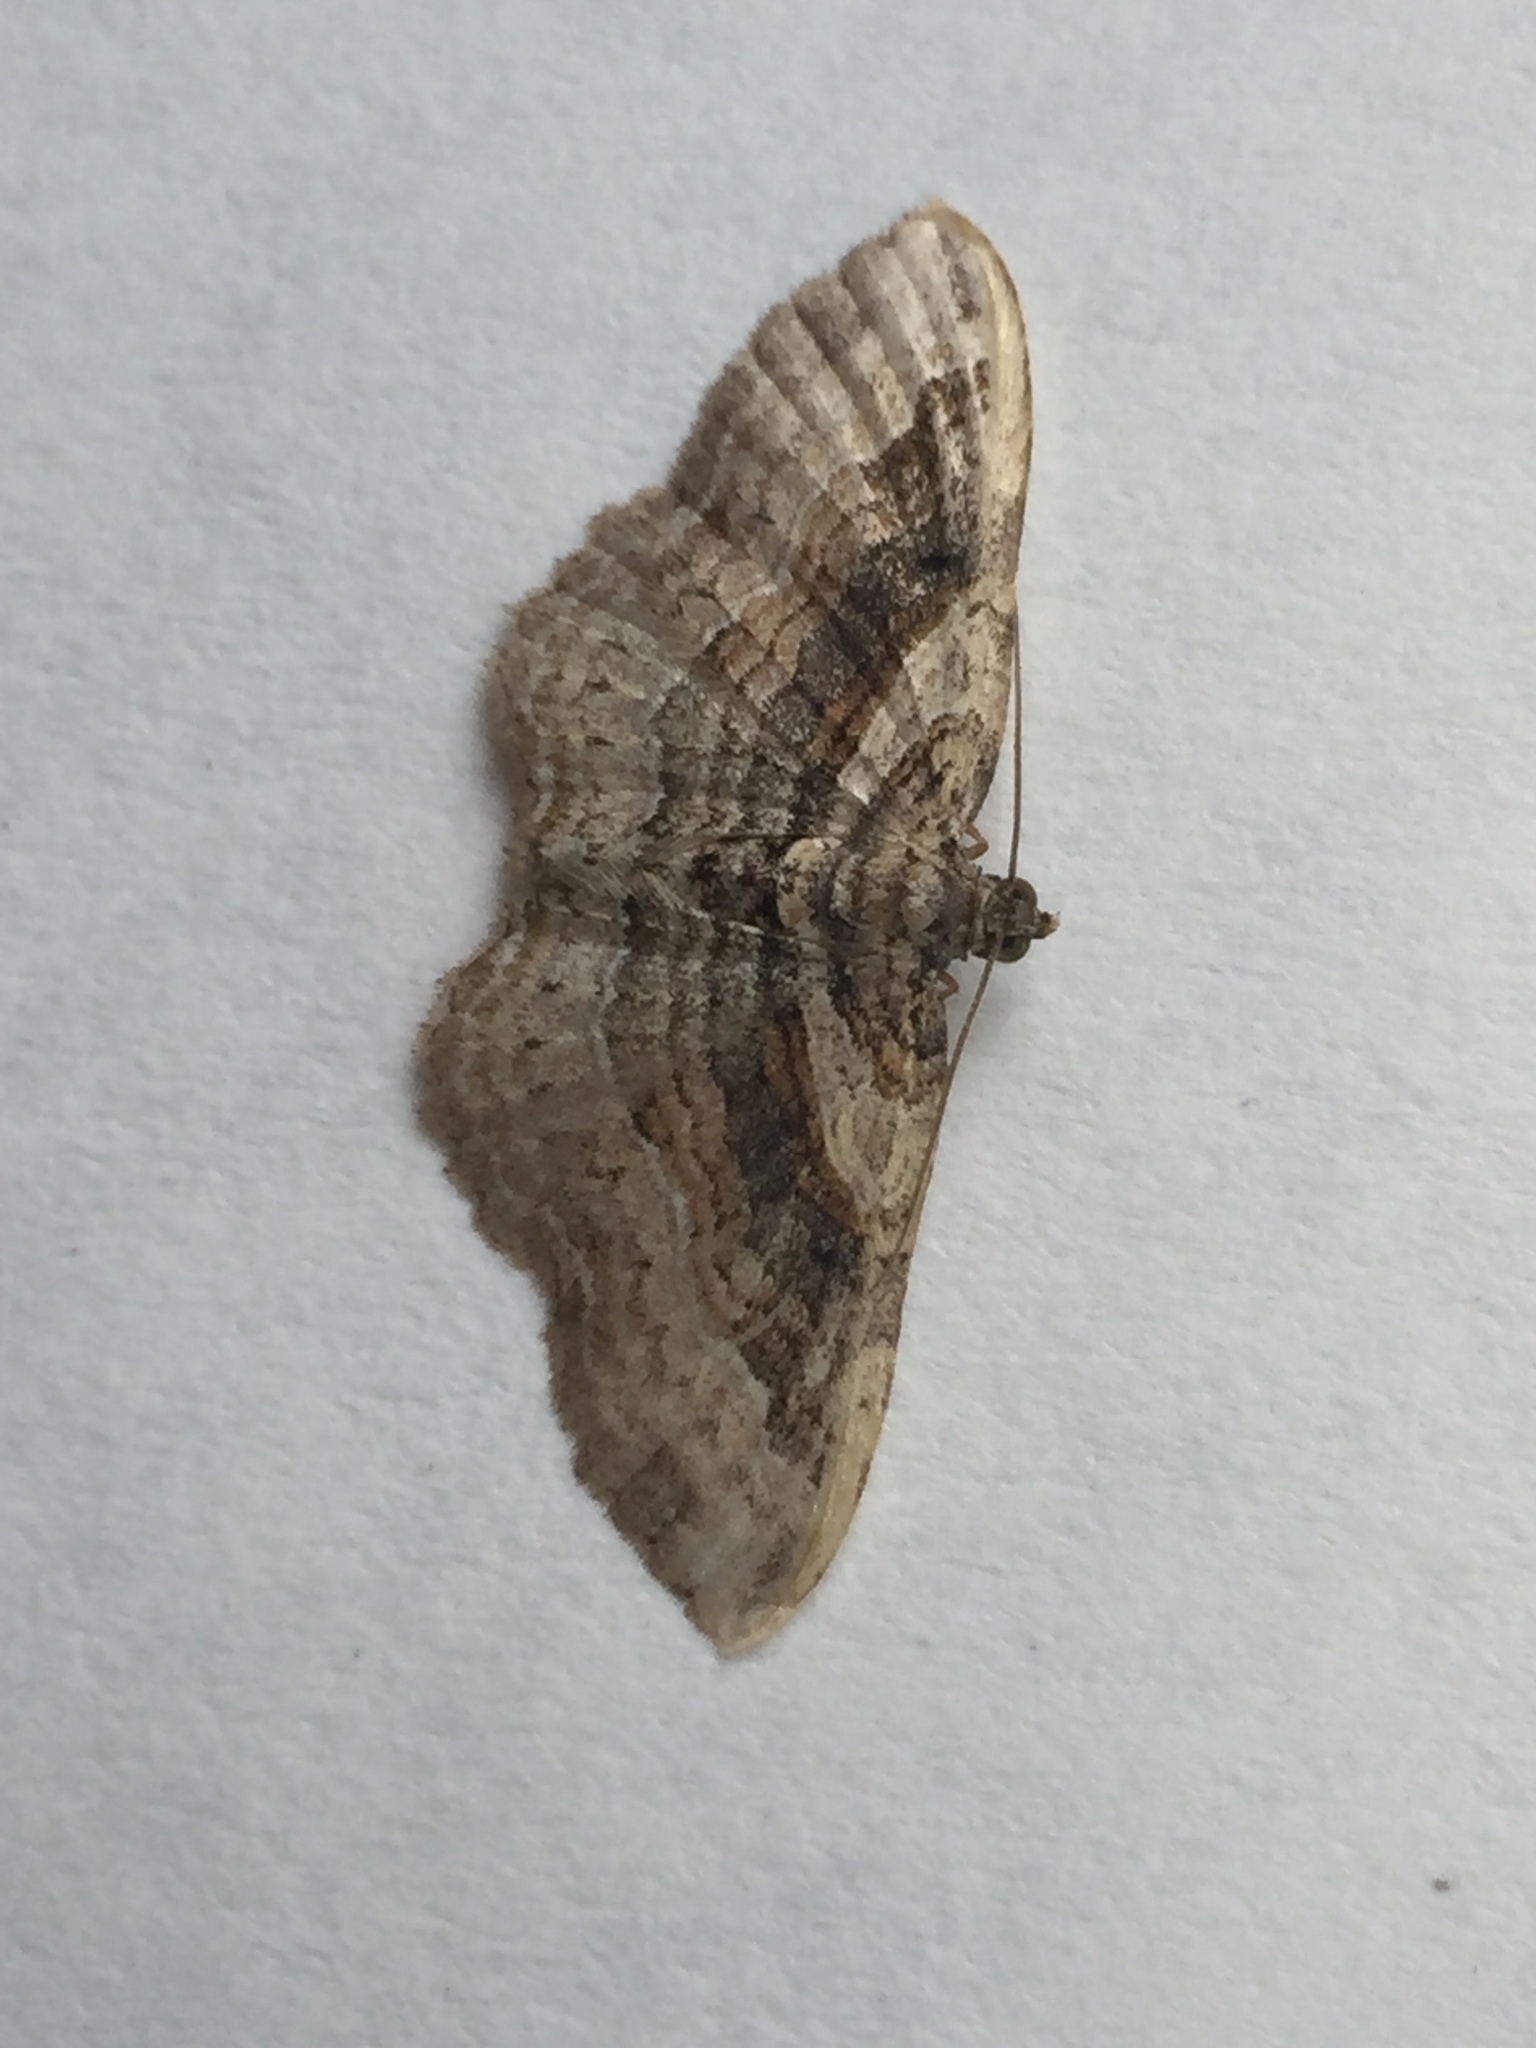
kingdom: Animalia
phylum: Arthropoda
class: Insecta
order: Lepidoptera
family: Geometridae
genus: Costaconvexa
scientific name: Costaconvexa centrostrigaria
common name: Bent-line carpet
